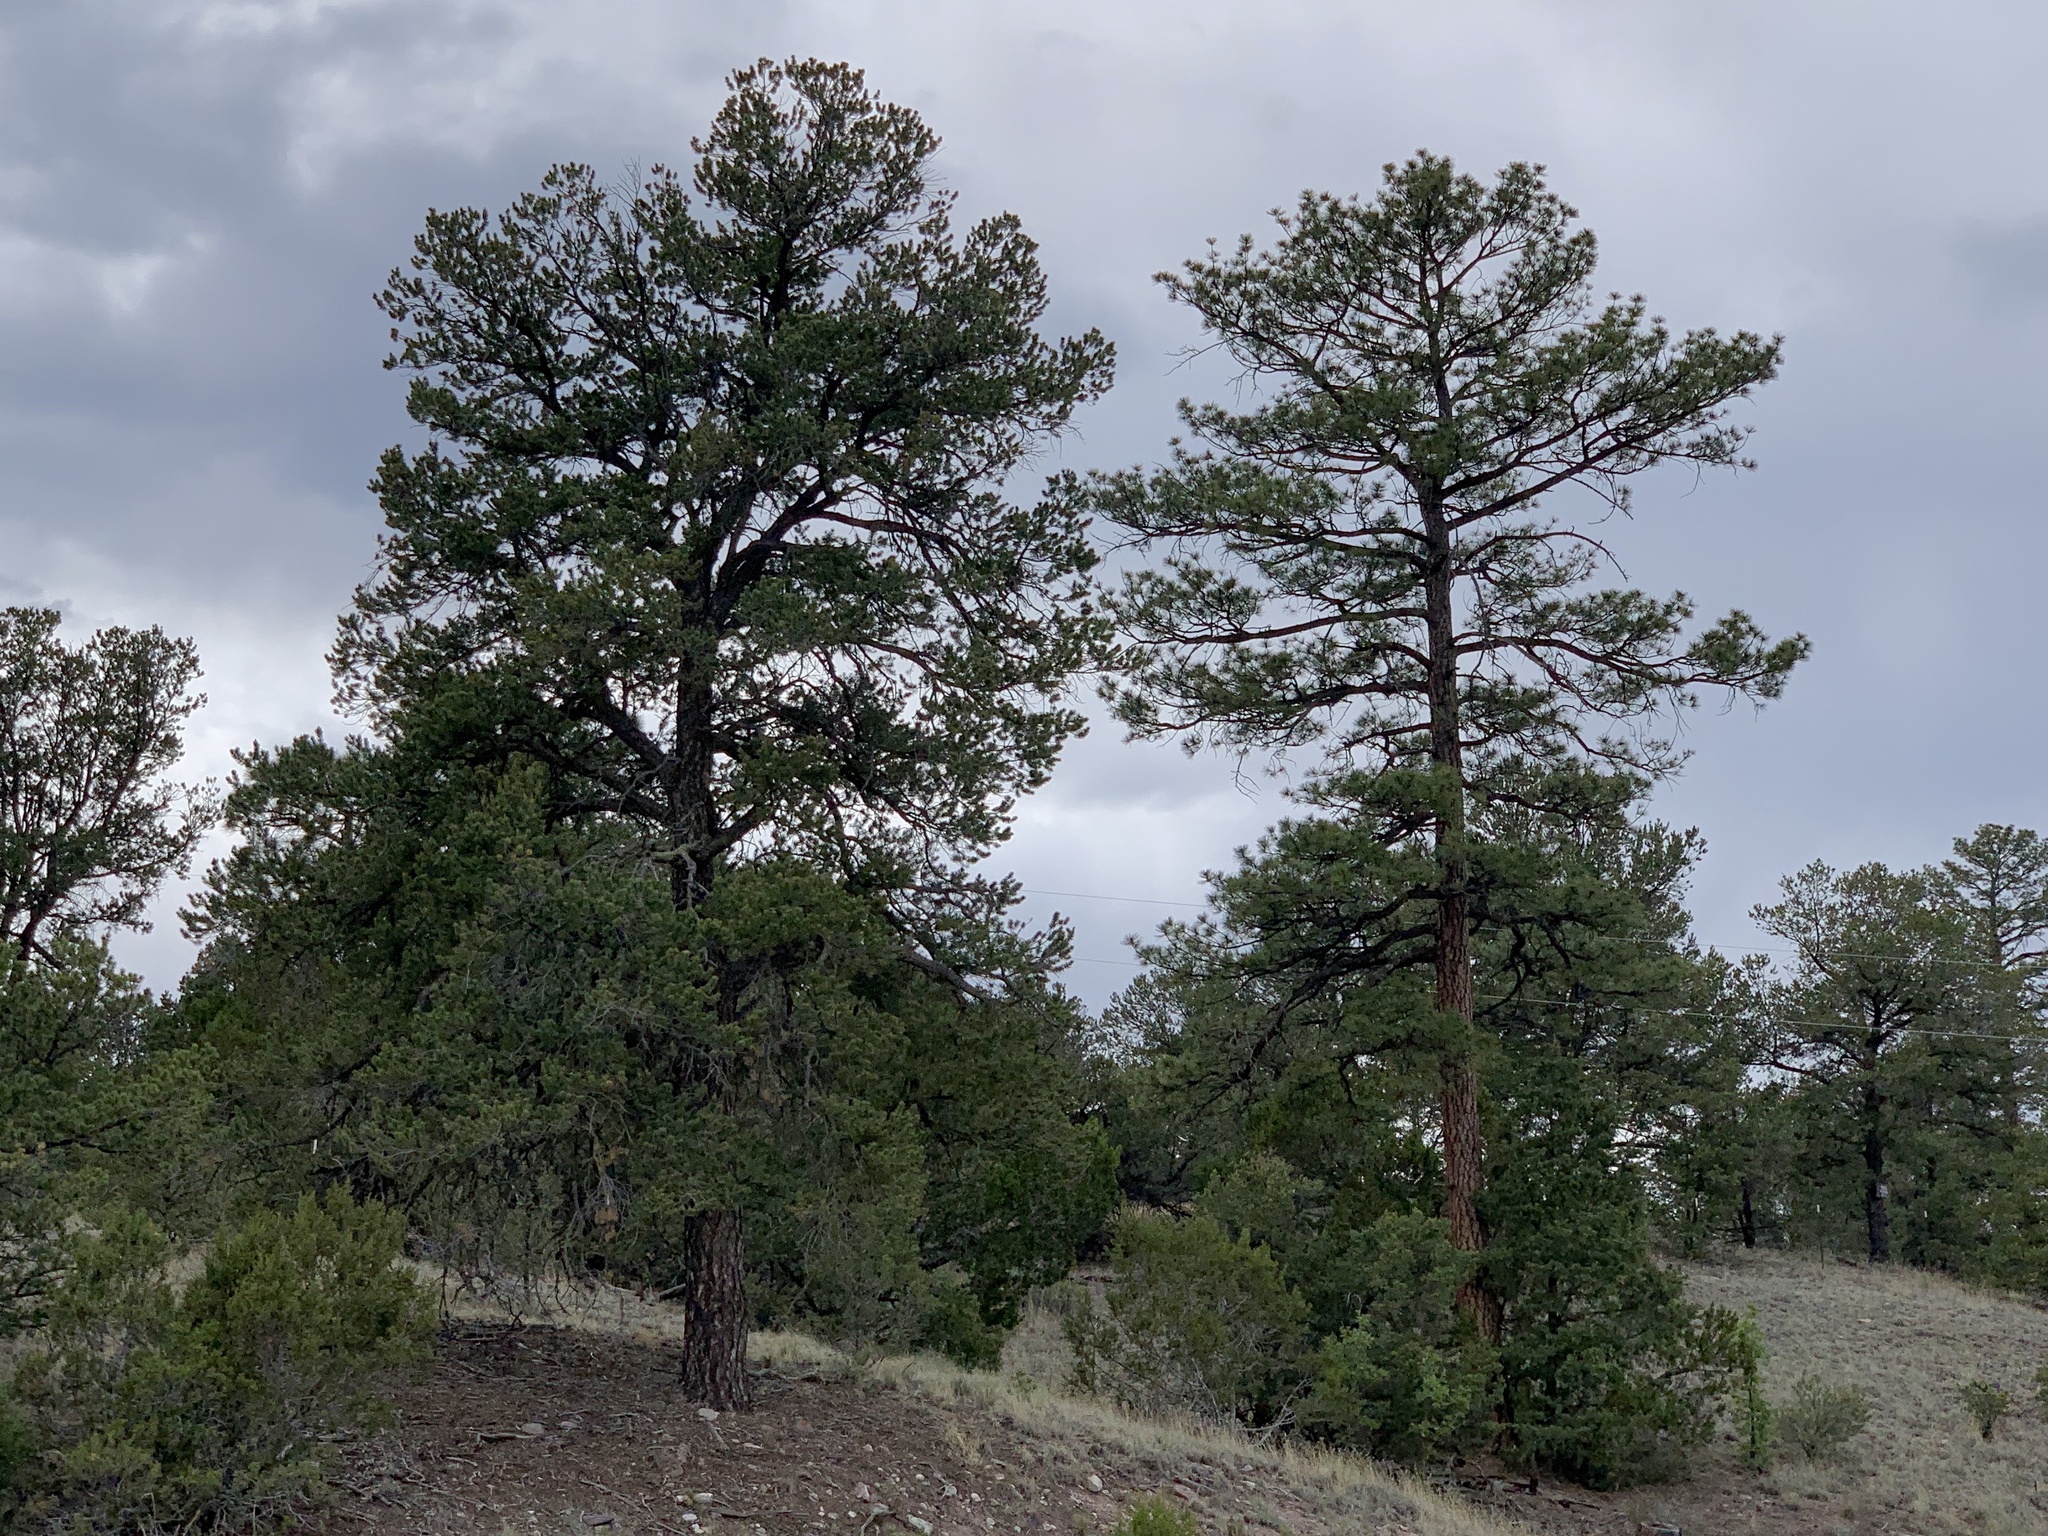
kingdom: Plantae
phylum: Tracheophyta
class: Pinopsida
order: Pinales
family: Pinaceae
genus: Pinus
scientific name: Pinus ponderosa
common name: Western yellow-pine
